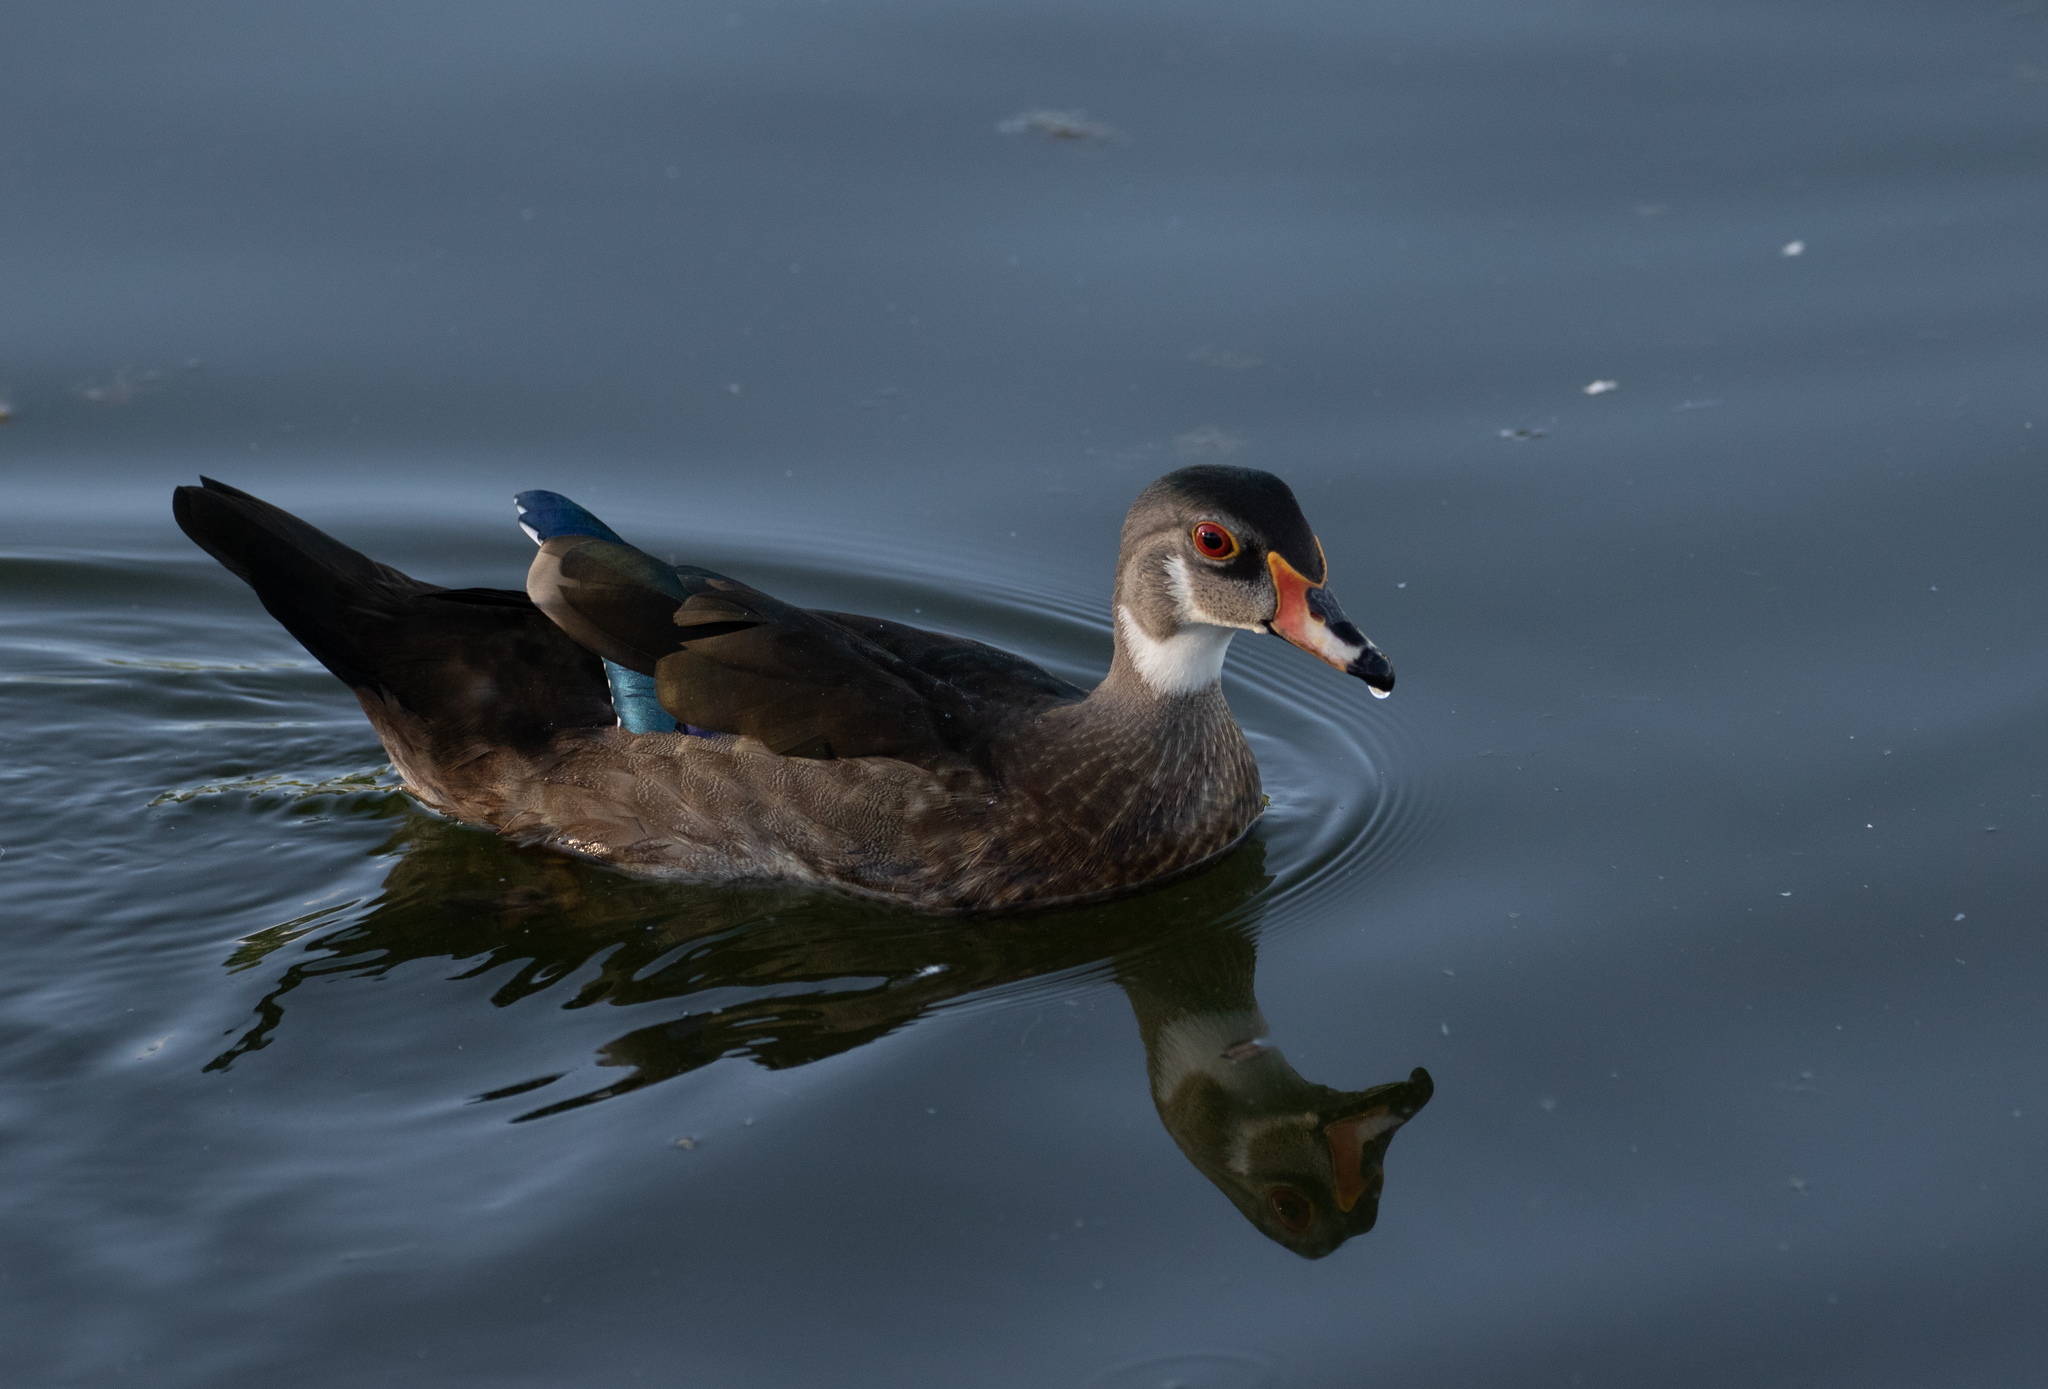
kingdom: Animalia
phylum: Chordata
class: Aves
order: Anseriformes
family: Anatidae
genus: Aix
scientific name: Aix sponsa
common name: Wood duck
